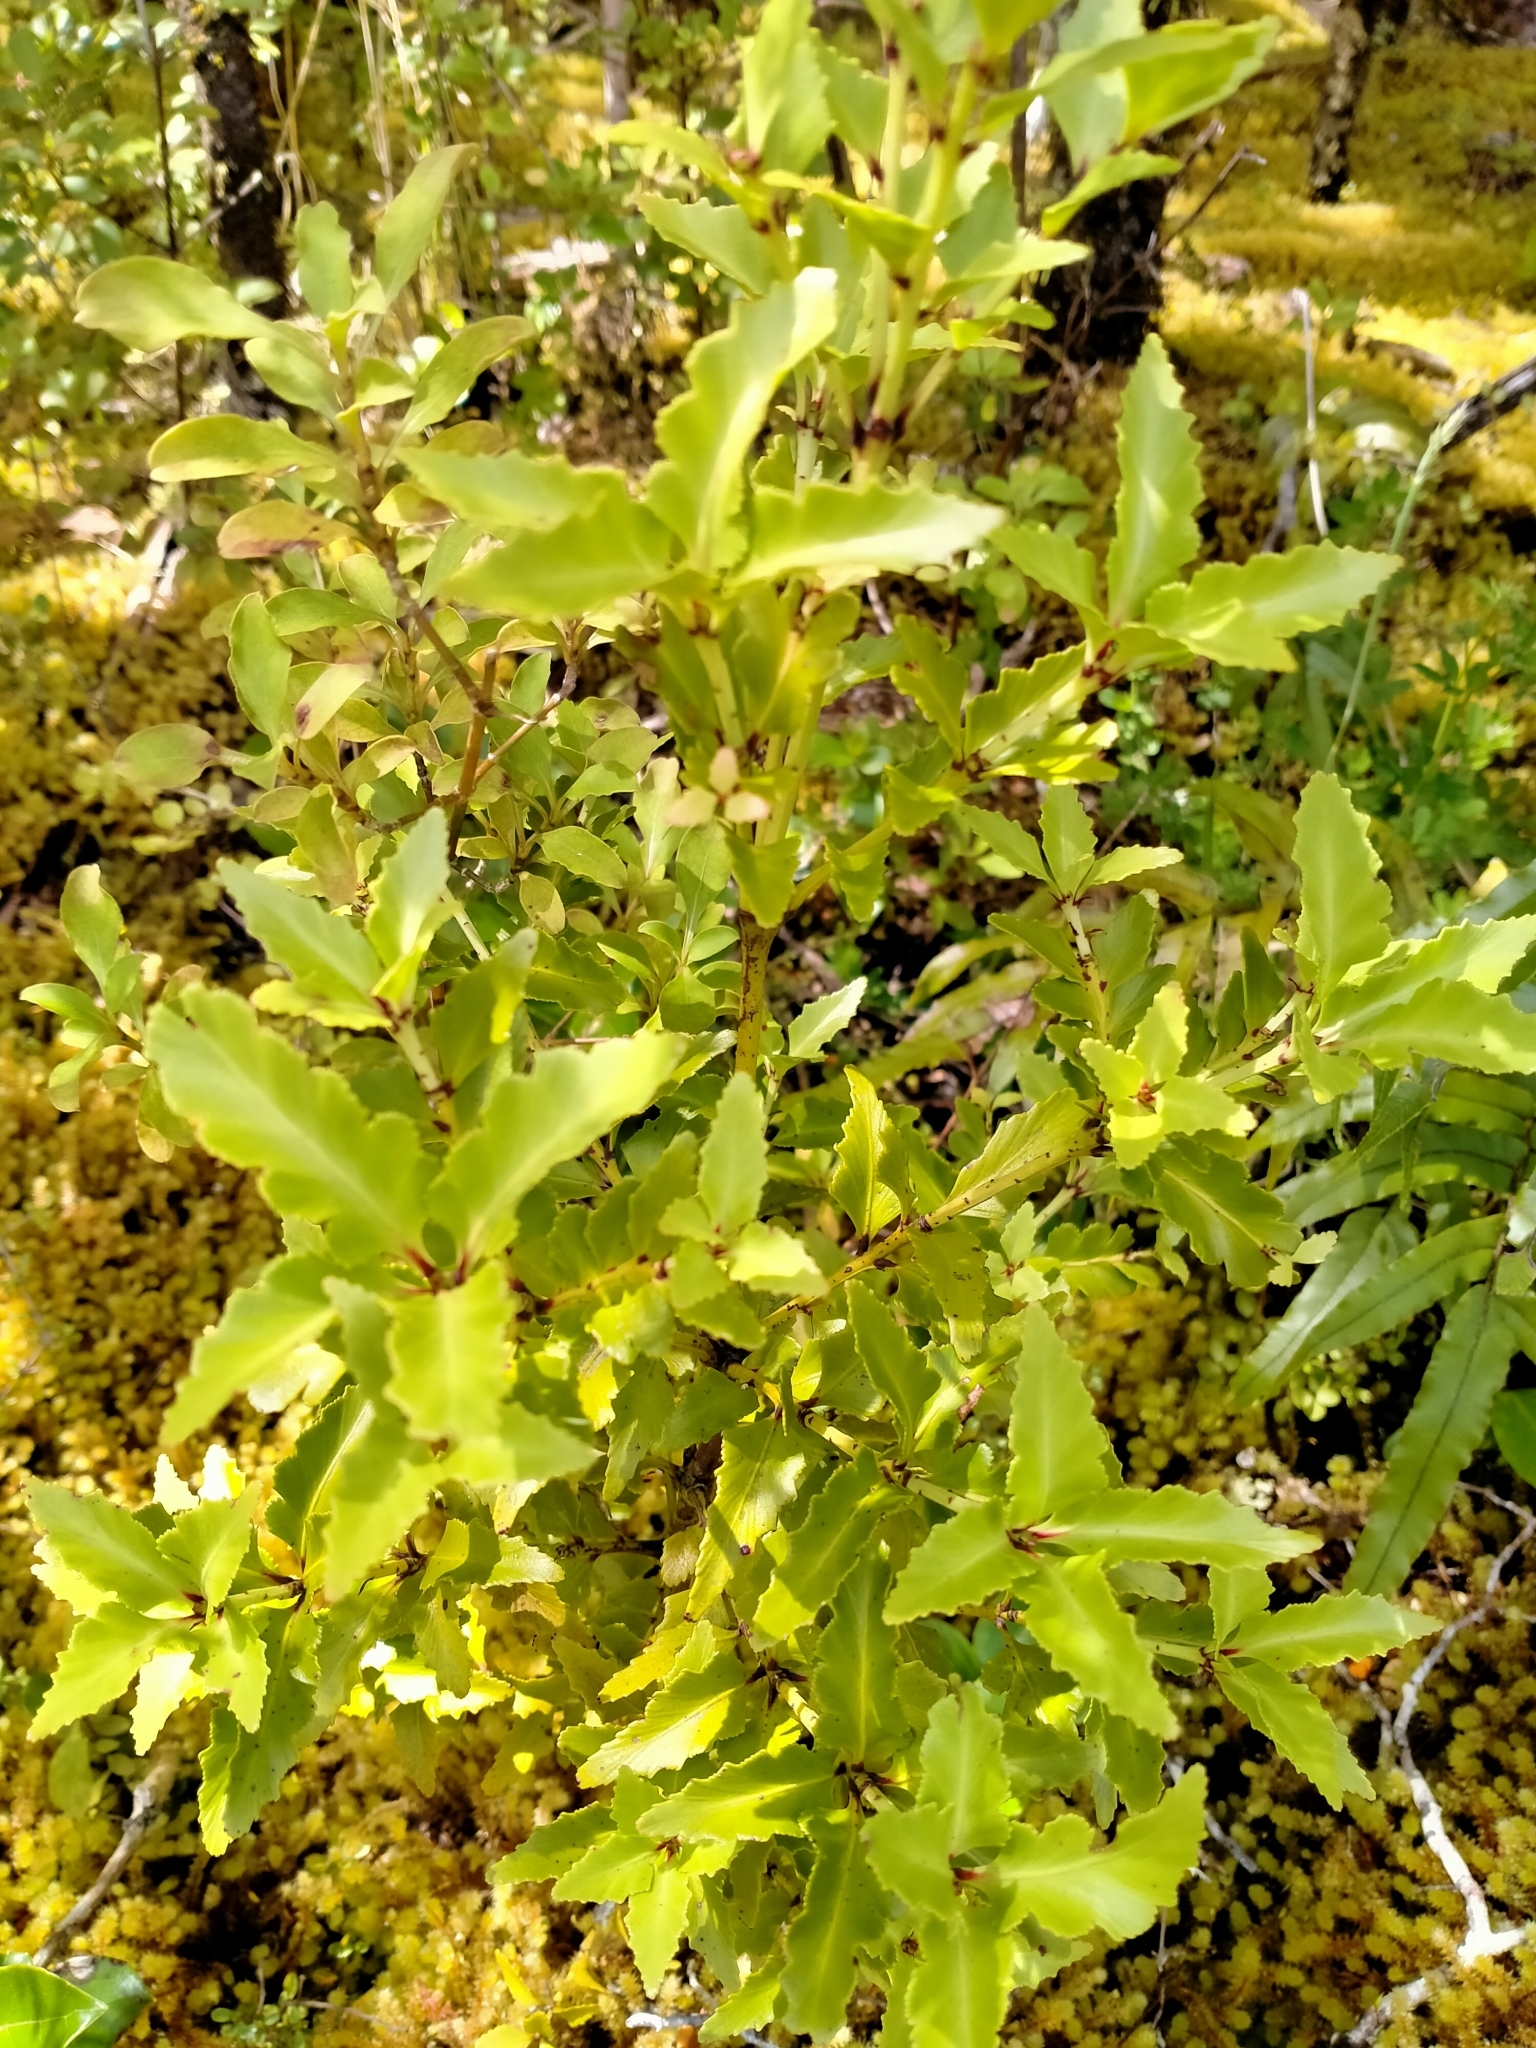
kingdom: Plantae
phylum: Tracheophyta
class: Pinopsida
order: Pinales
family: Phyllocladaceae
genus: Phyllocladus
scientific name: Phyllocladus trichomanoides
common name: Celery pine
